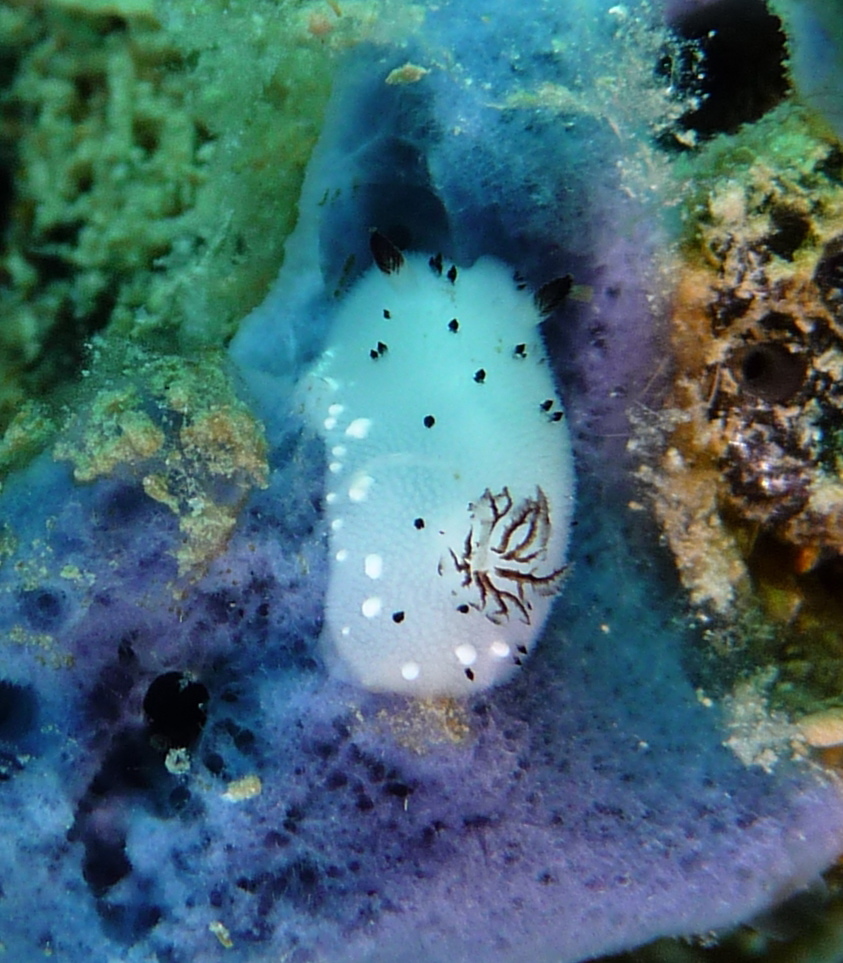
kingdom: Animalia
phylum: Mollusca
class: Gastropoda
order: Nudibranchia
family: Discodorididae
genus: Jorunna
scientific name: Jorunna funebris
